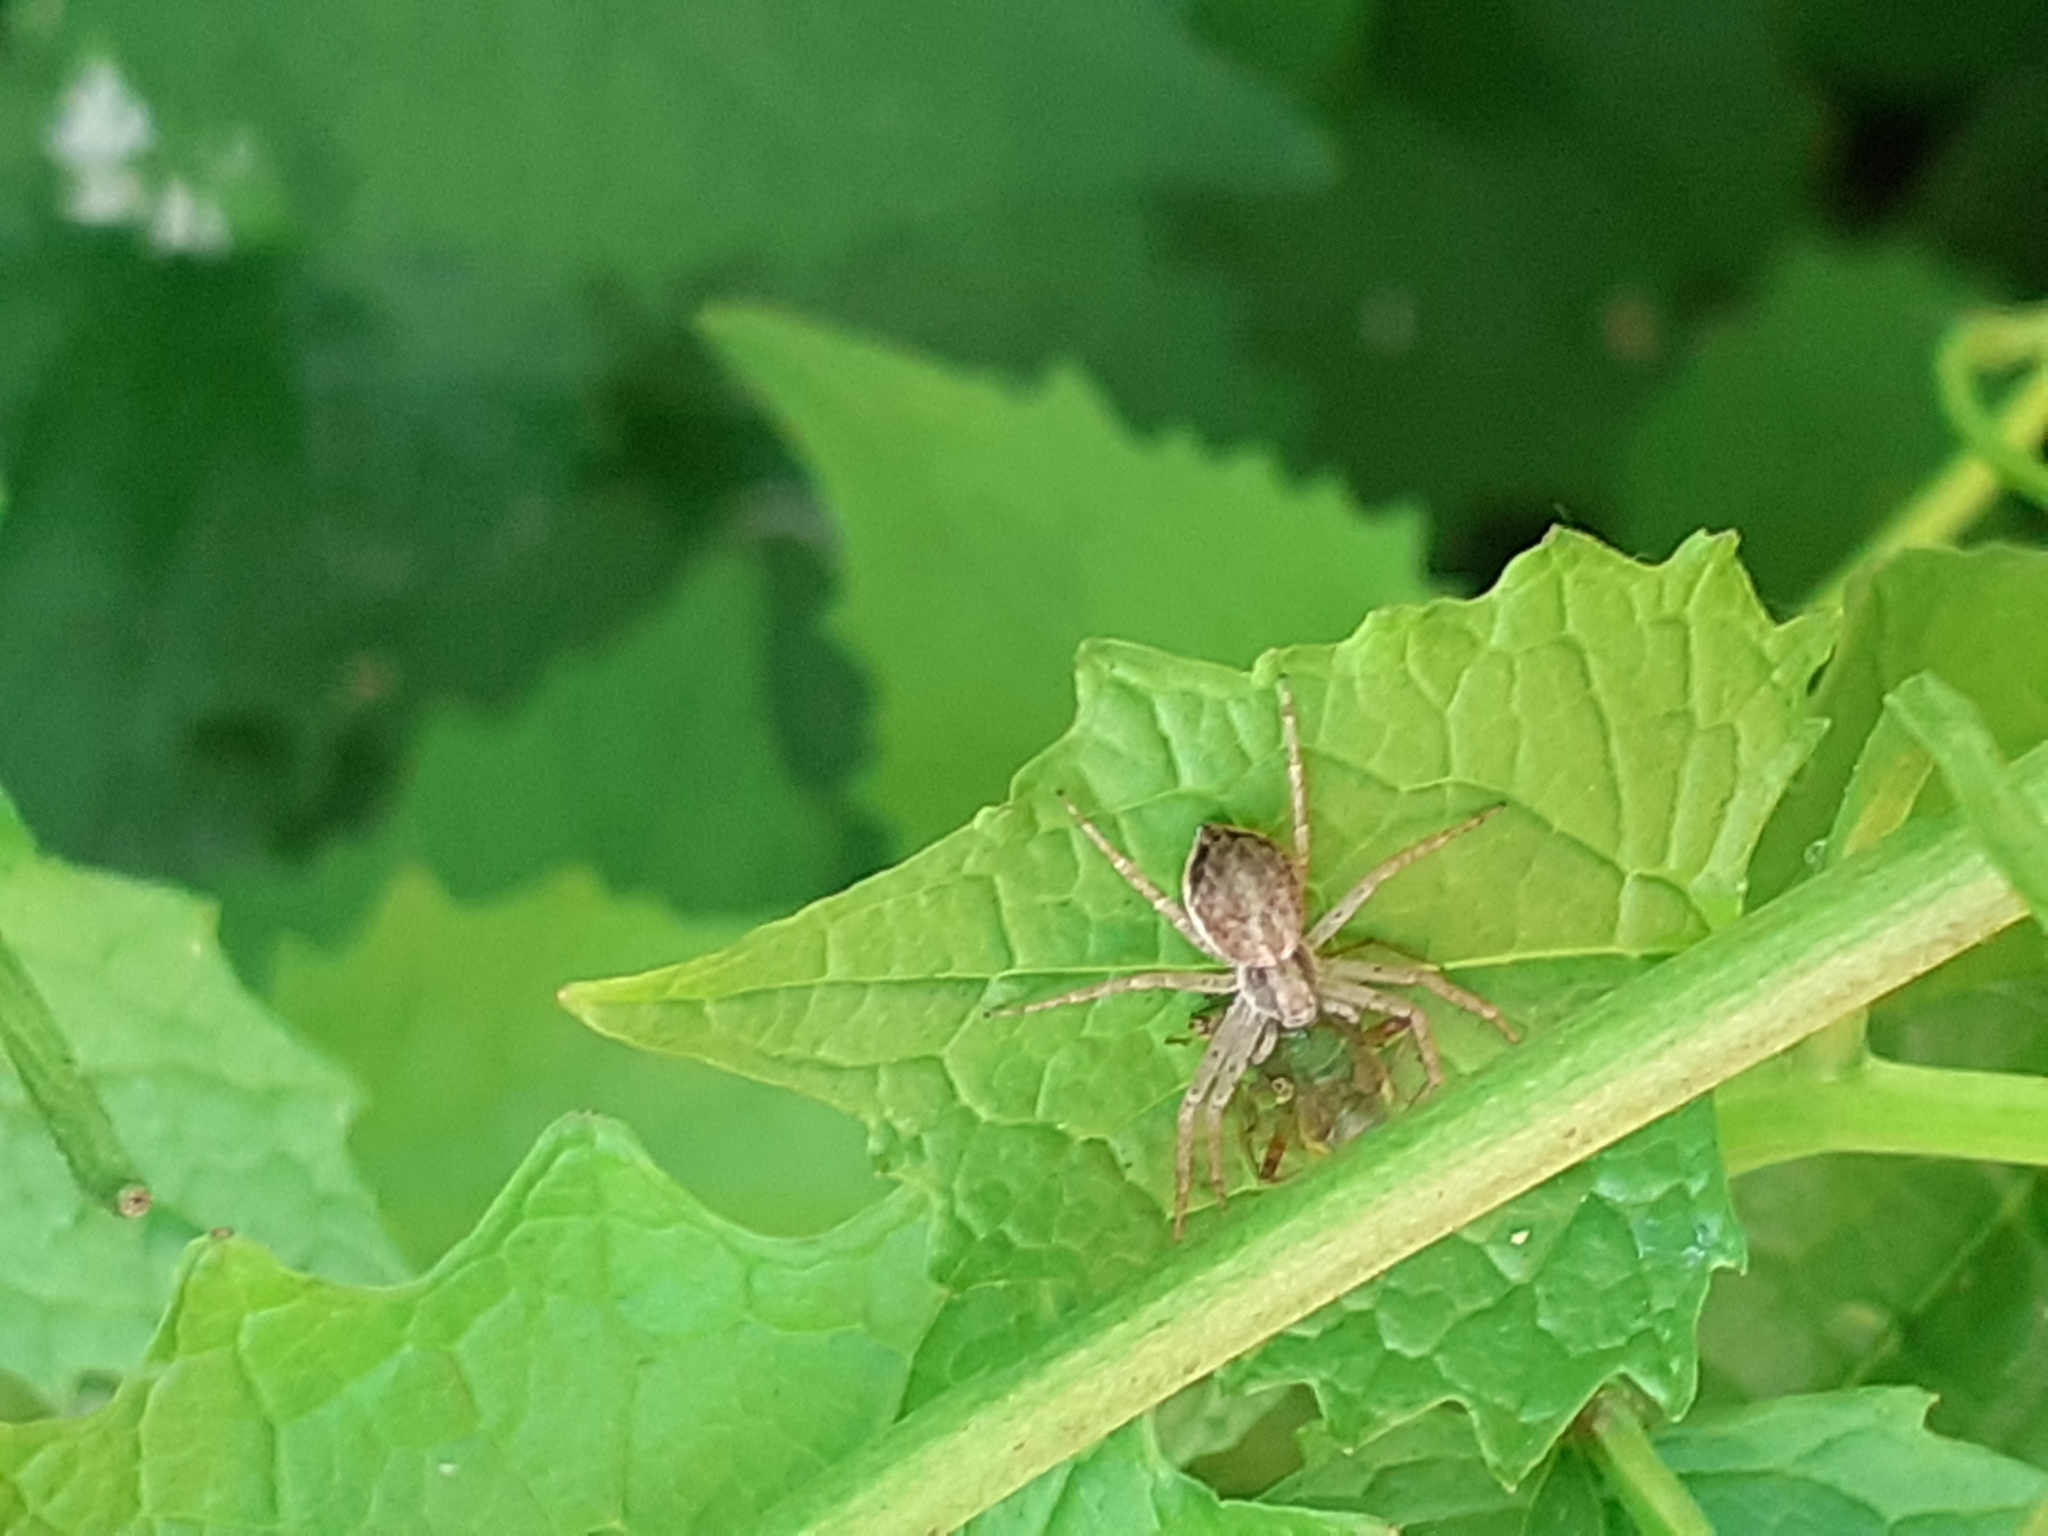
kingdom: Animalia
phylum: Arthropoda
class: Arachnida
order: Araneae
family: Philodromidae
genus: Philodromus
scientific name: Philodromus dispar
